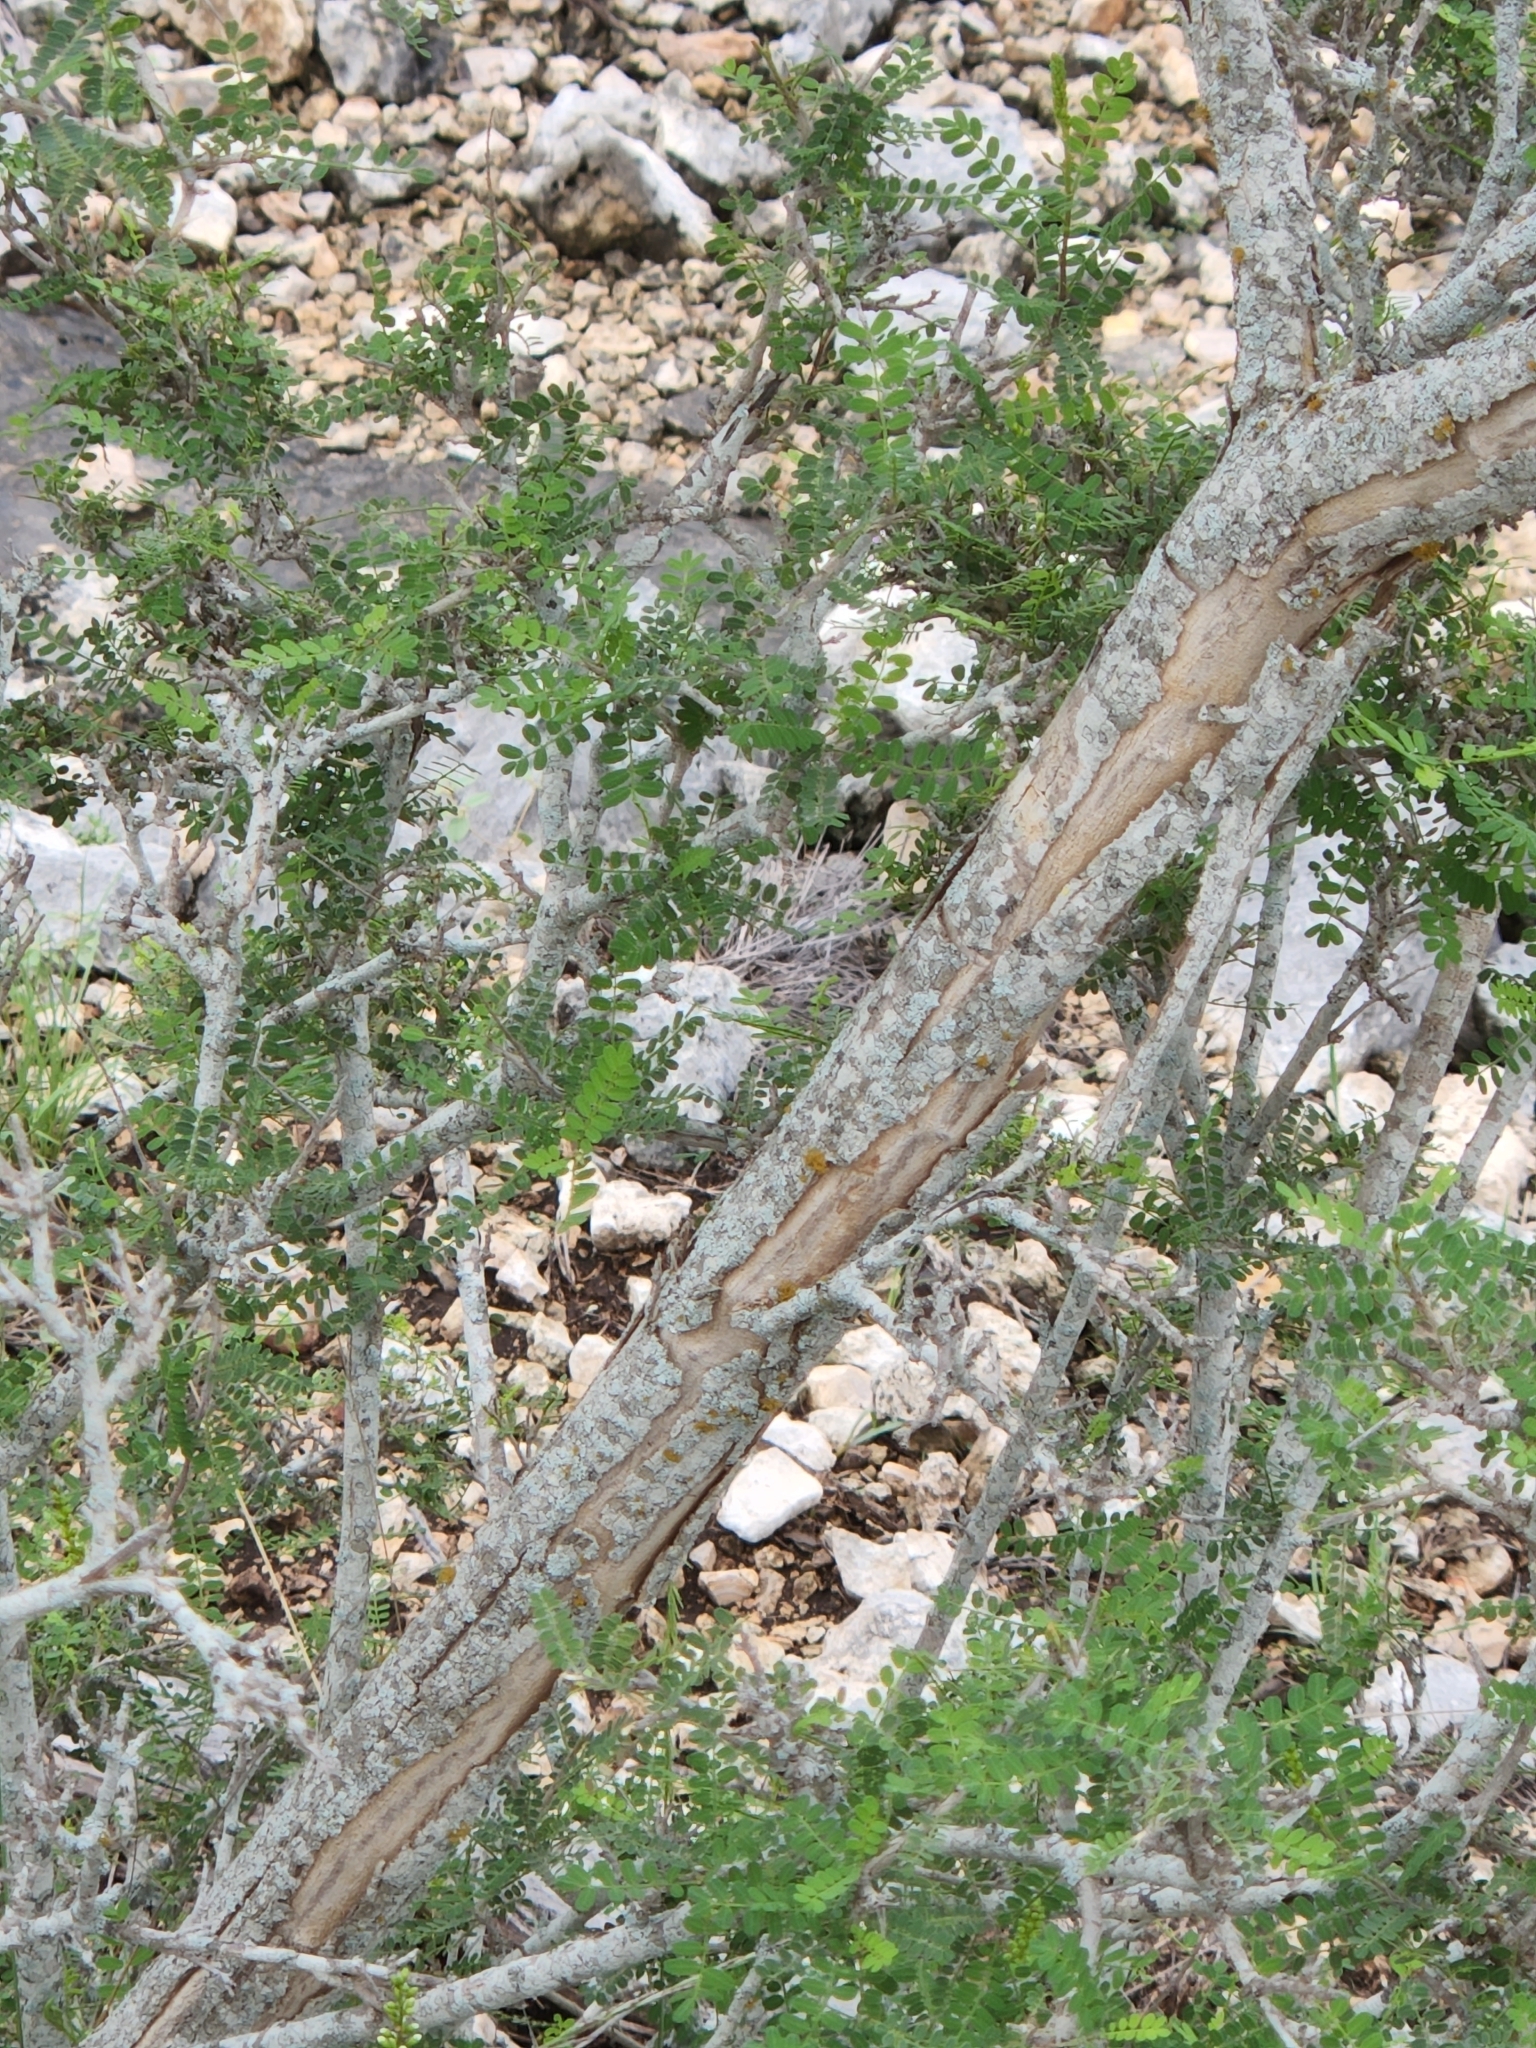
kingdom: Plantae
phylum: Tracheophyta
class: Magnoliopsida
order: Fabales
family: Fabaceae
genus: Eysenhardtia
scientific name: Eysenhardtia texana
